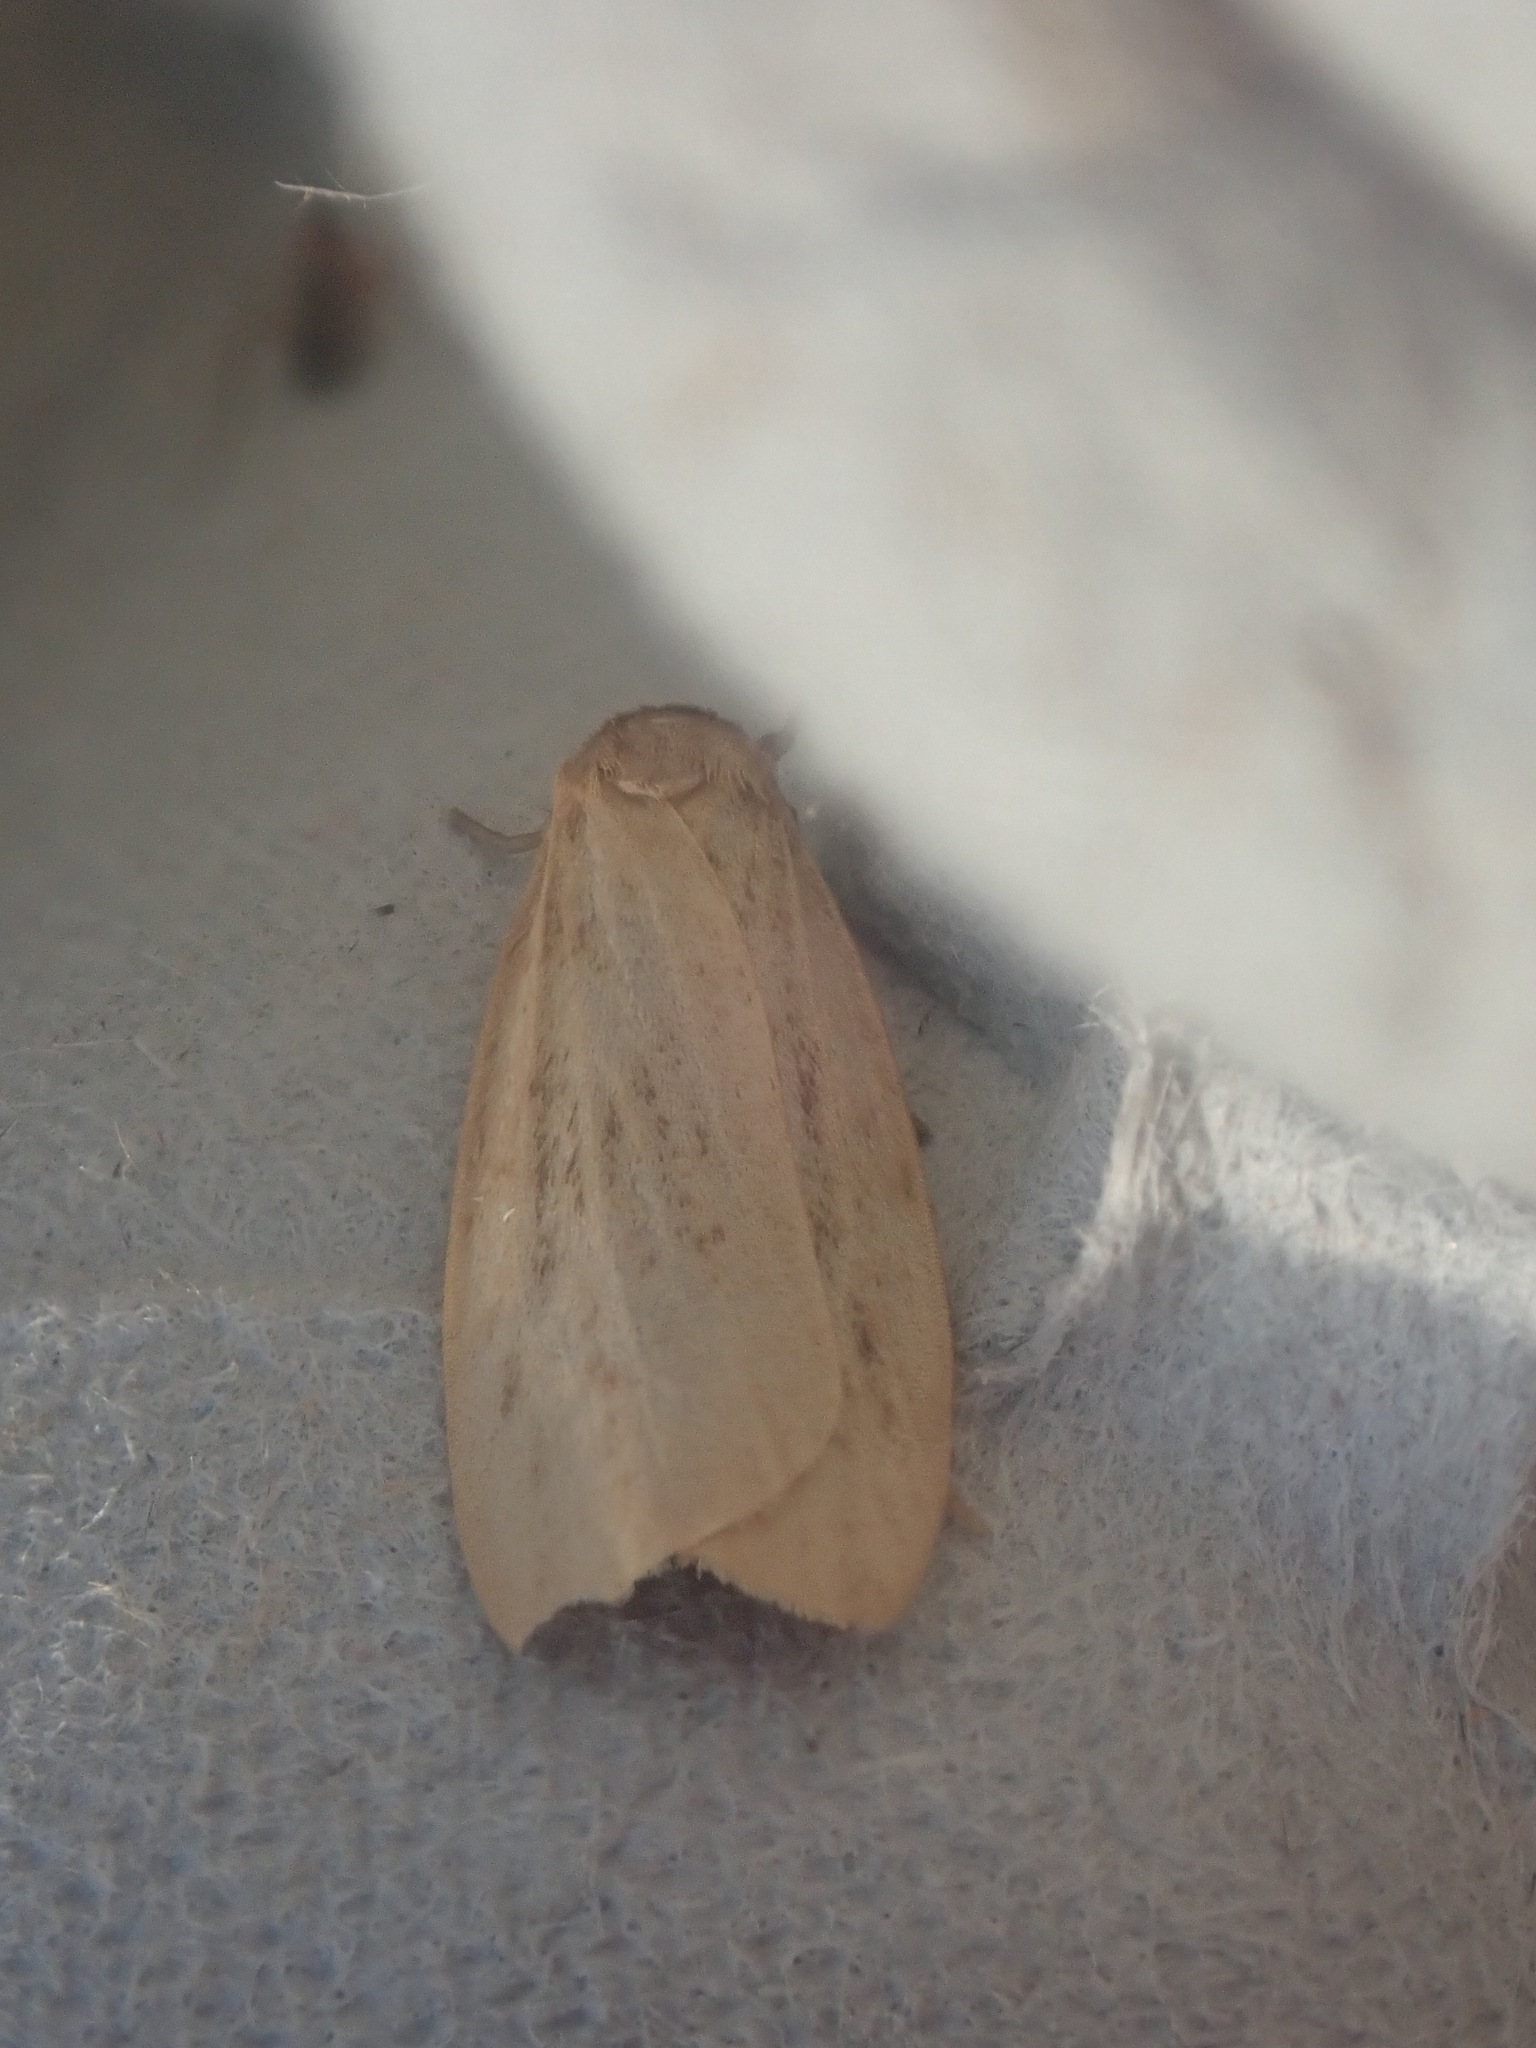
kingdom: Animalia
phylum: Arthropoda
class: Insecta
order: Lepidoptera
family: Erebidae
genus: Crambidia
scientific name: Crambidia pallida
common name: Pale lichen moth
